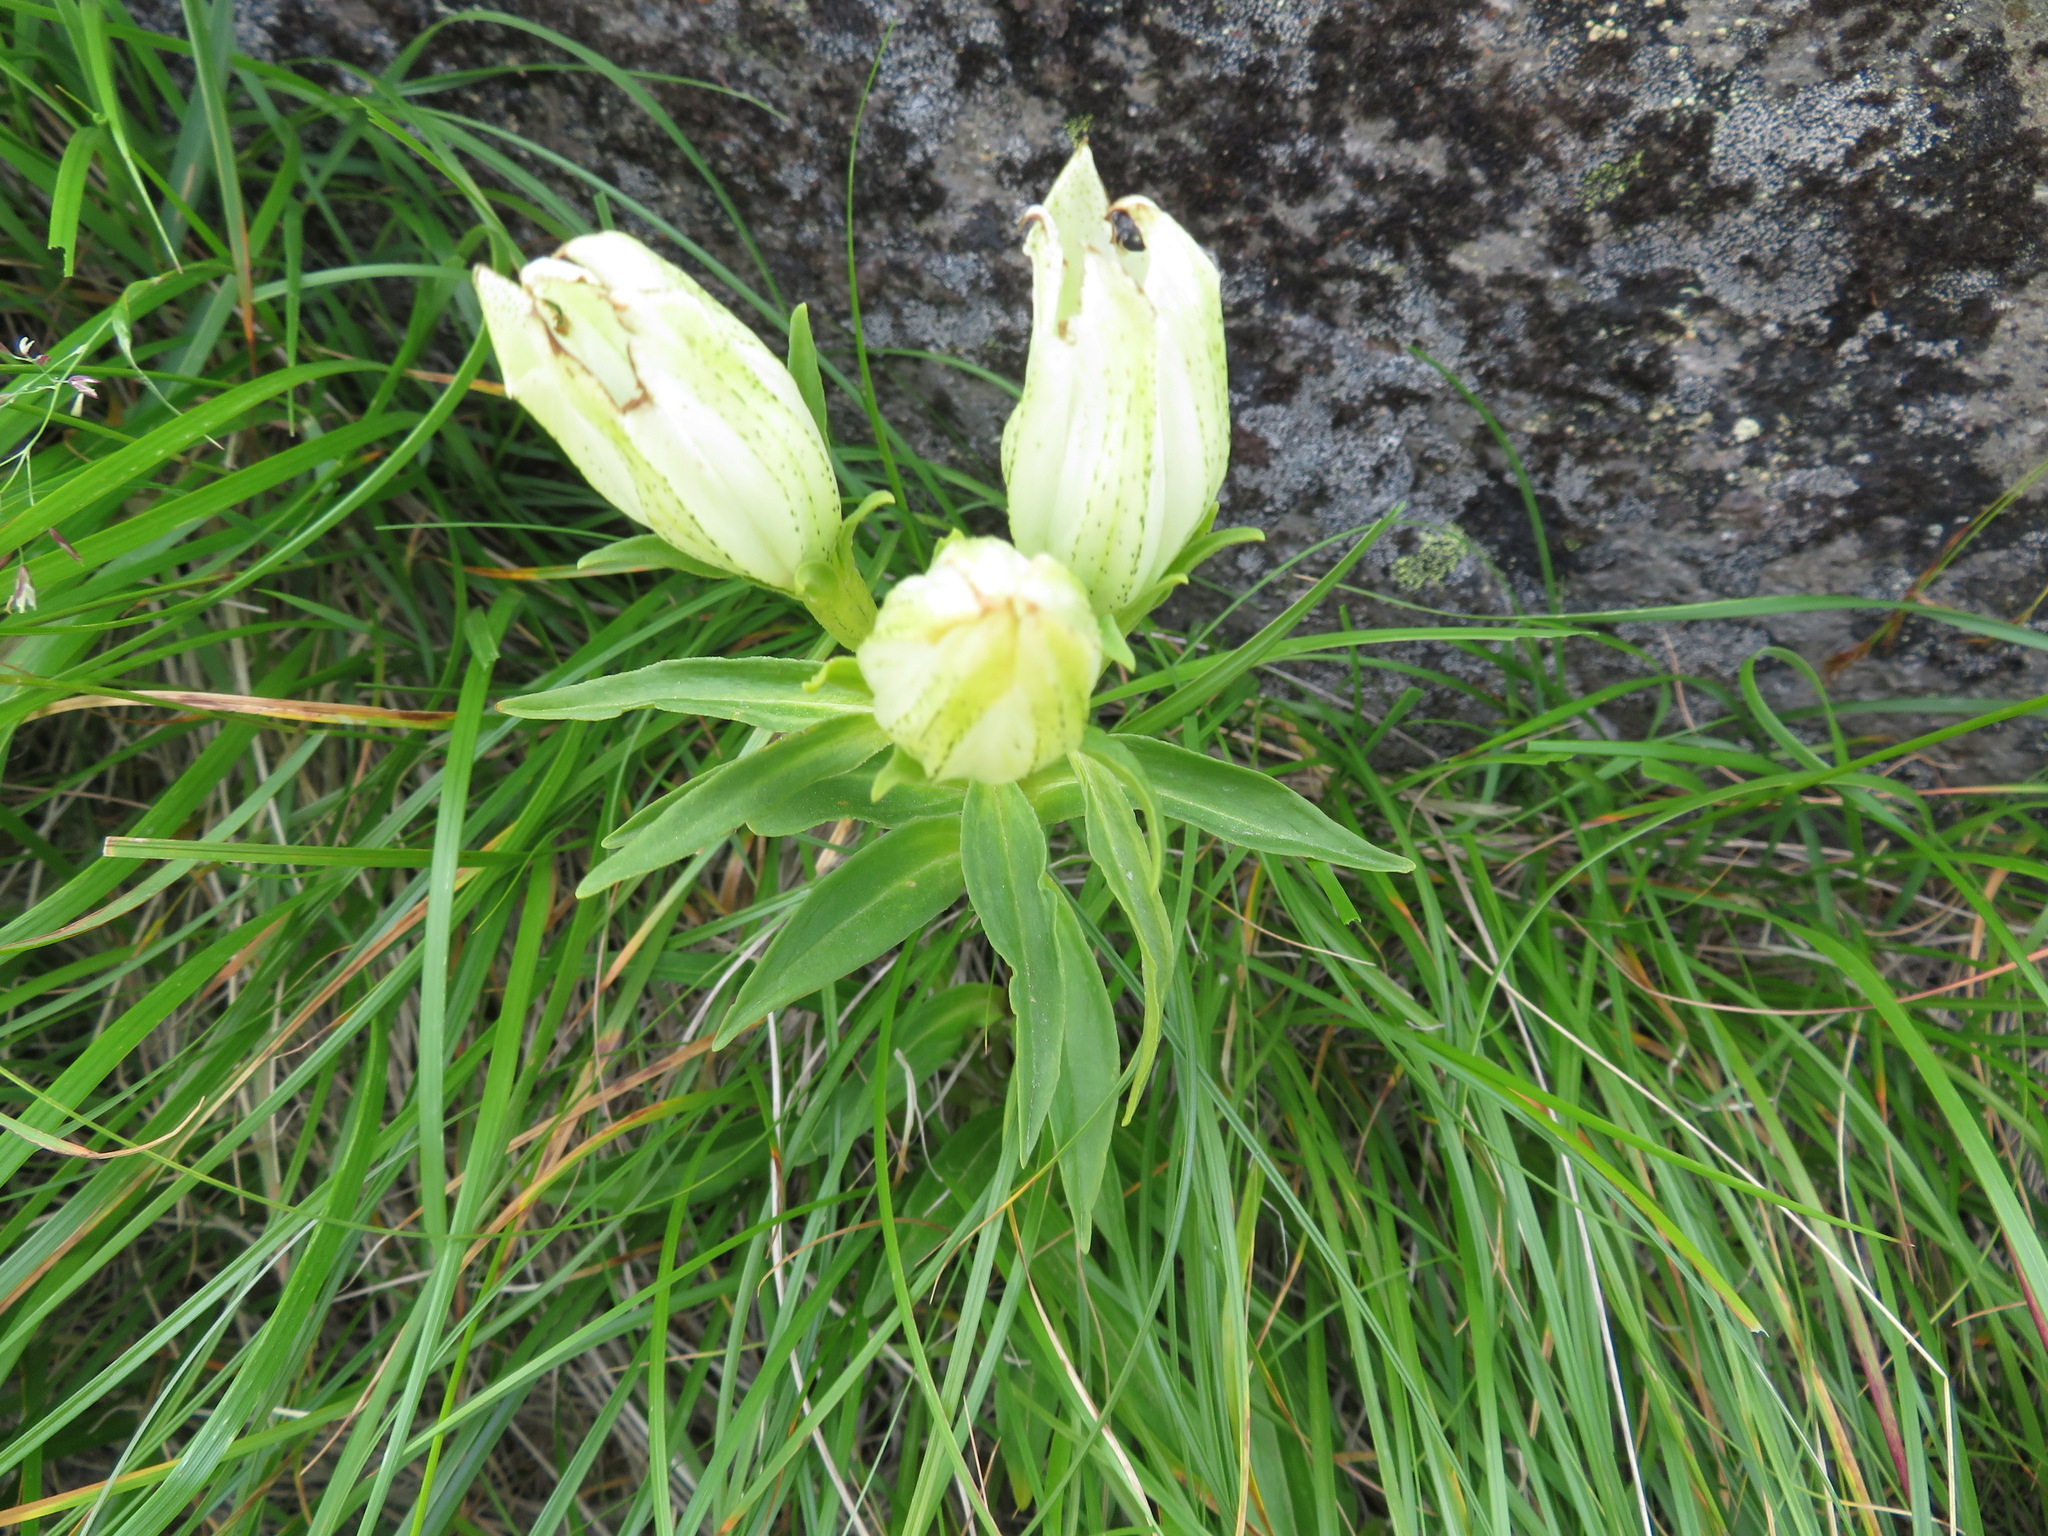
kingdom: Plantae
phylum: Tracheophyta
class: Magnoliopsida
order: Gentianales
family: Gentianaceae
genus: Gentiana
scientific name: Gentiana algida
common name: Arctic gentian
